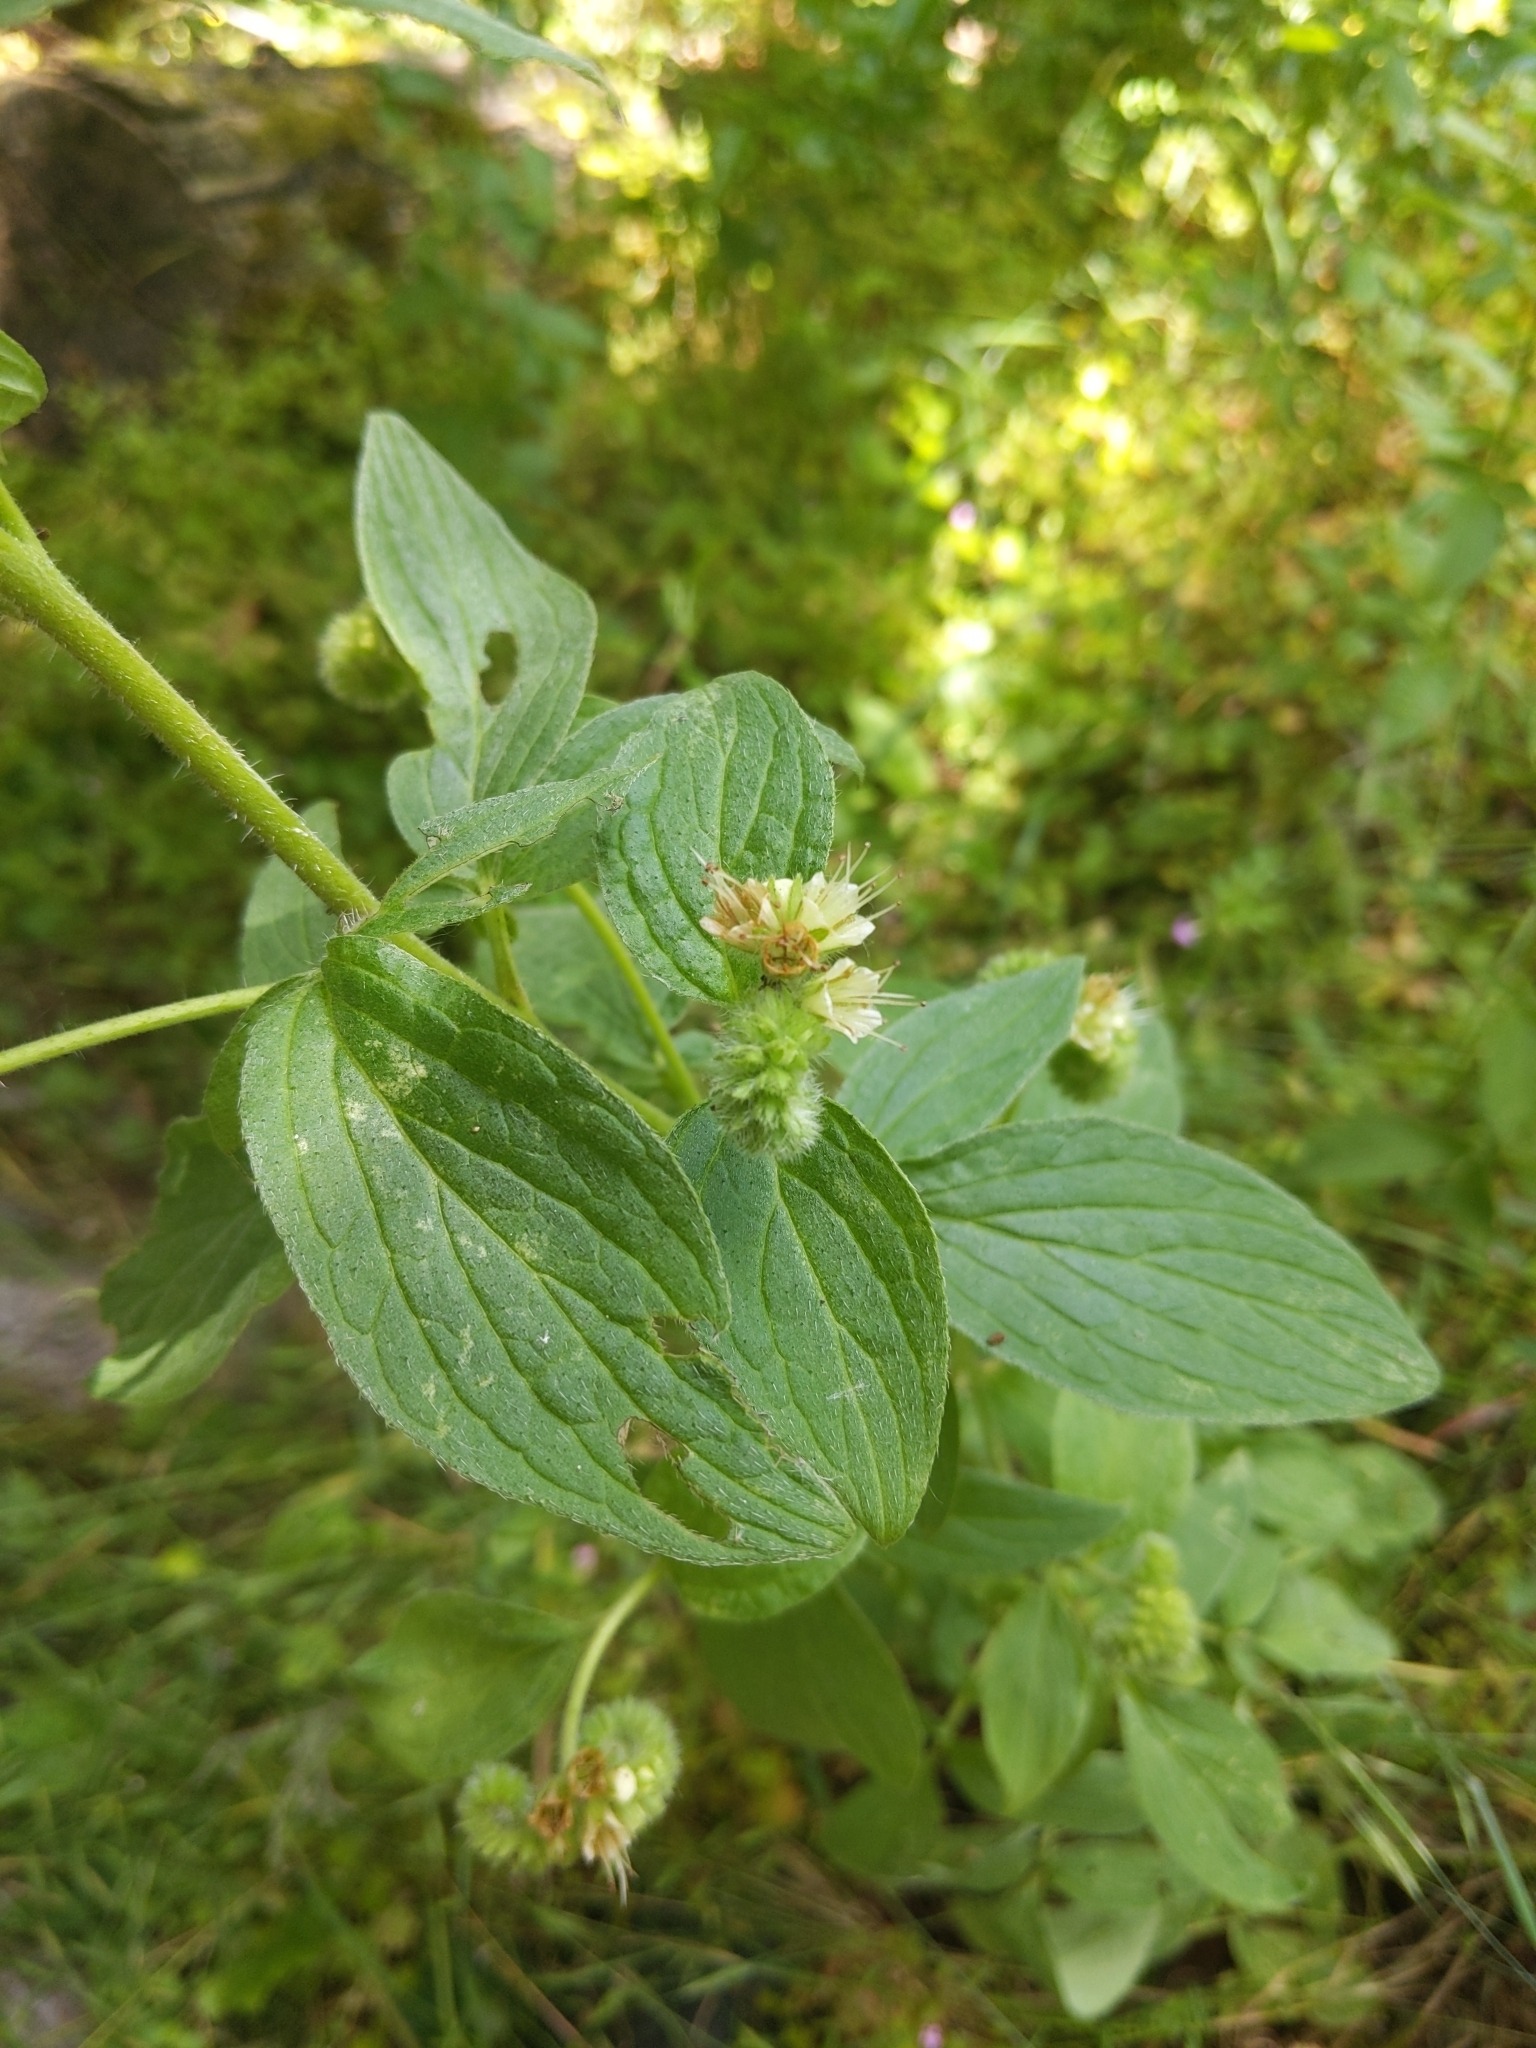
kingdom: Plantae
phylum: Tracheophyta
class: Magnoliopsida
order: Boraginales
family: Hydrophyllaceae
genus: Phacelia
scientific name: Phacelia nemoralis
